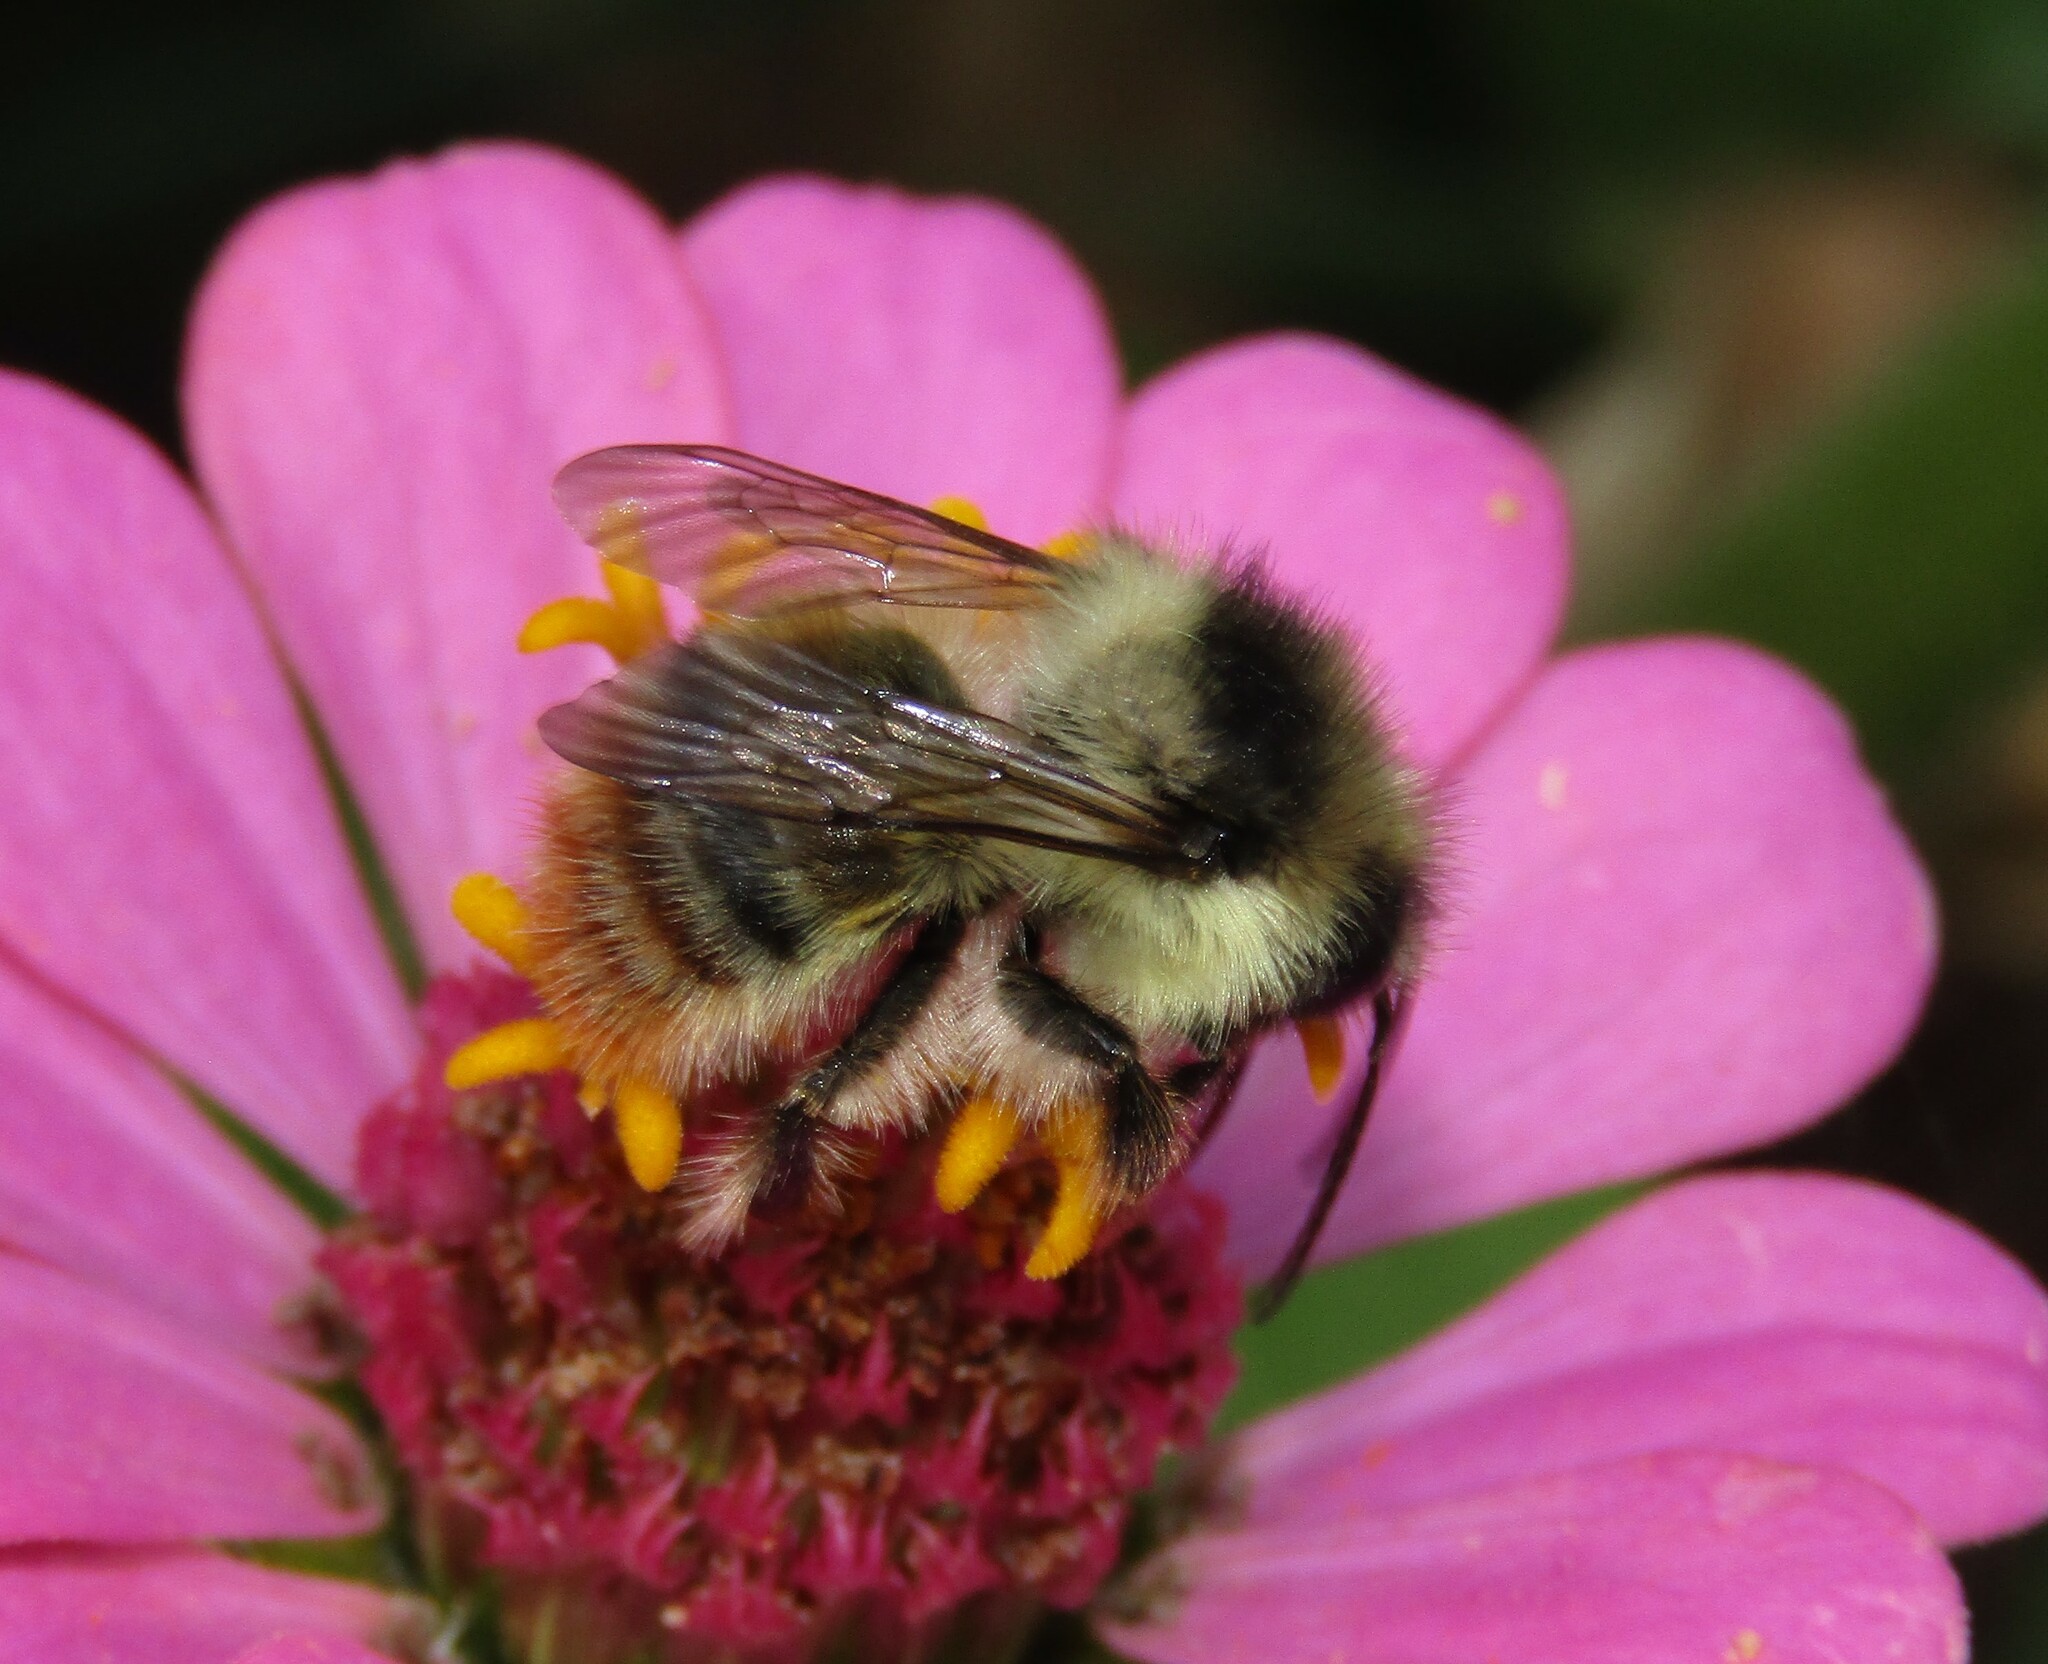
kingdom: Animalia
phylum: Arthropoda
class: Insecta
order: Hymenoptera
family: Apidae
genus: Bombus
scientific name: Bombus sylvarum
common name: Shrill carder bee
